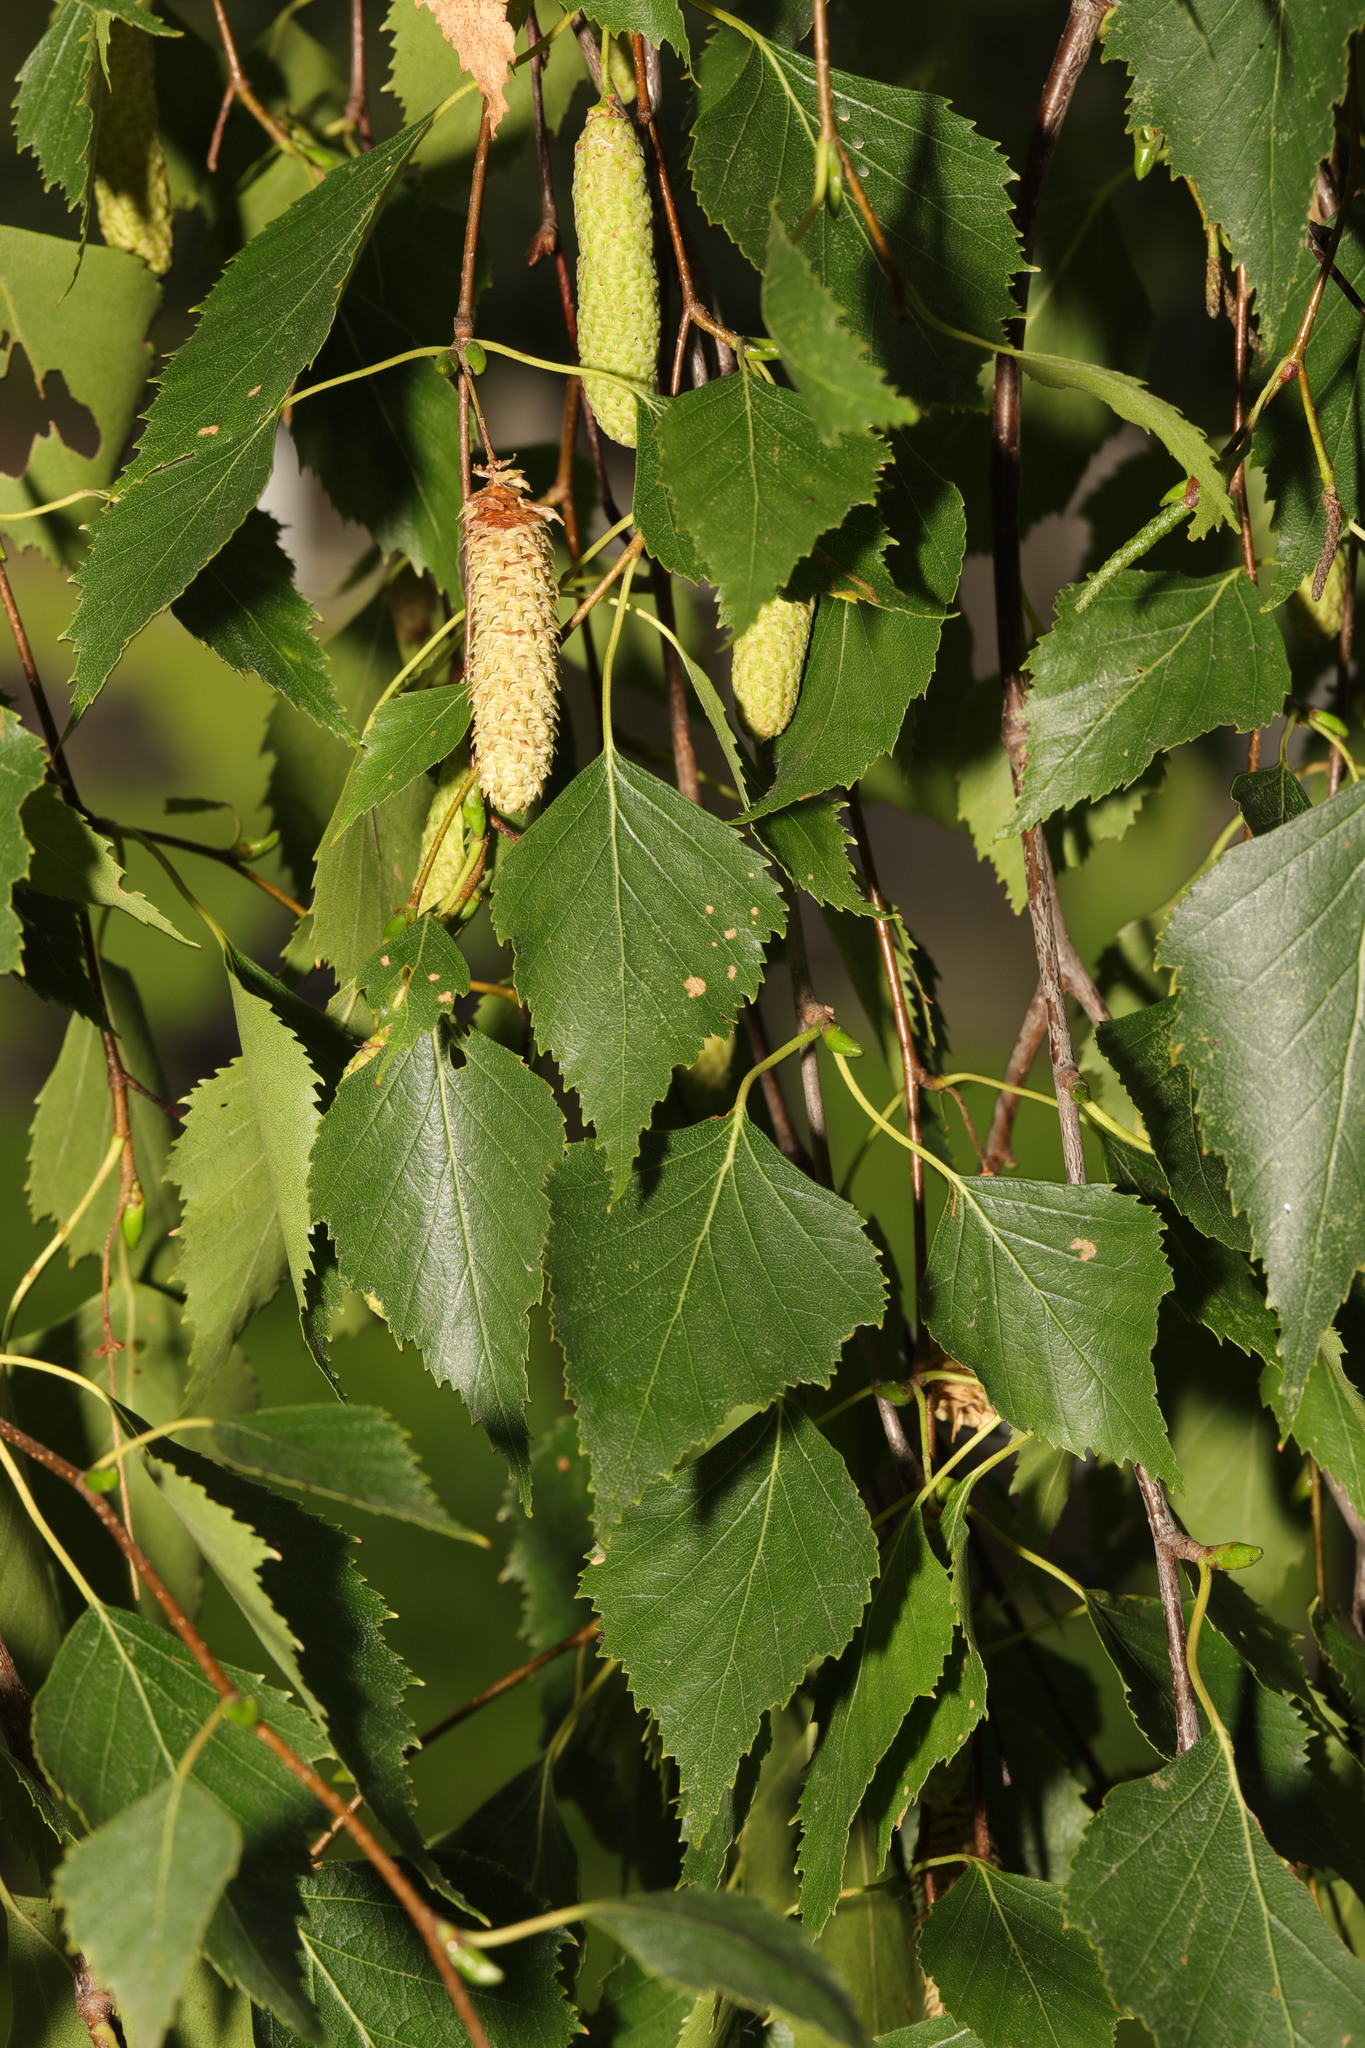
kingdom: Plantae
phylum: Tracheophyta
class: Magnoliopsida
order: Fagales
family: Betulaceae
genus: Betula
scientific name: Betula pendula
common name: Silver birch
